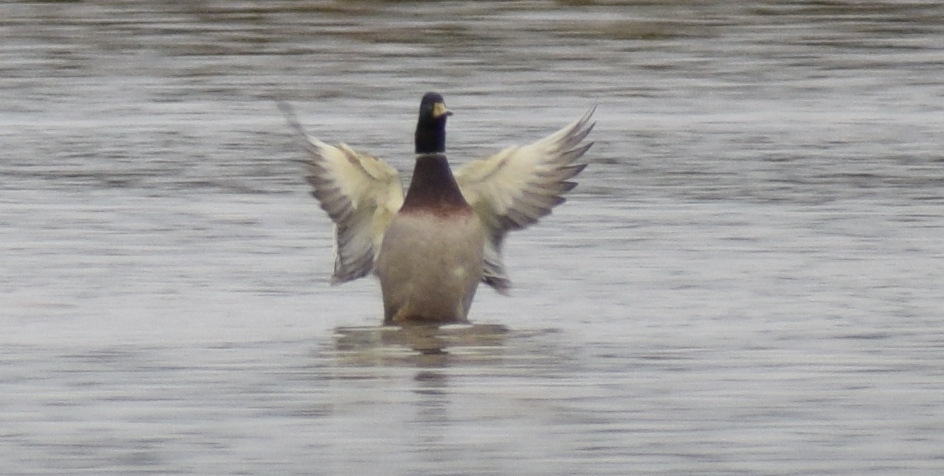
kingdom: Animalia
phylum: Chordata
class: Aves
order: Anseriformes
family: Anatidae
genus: Anas
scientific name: Anas platyrhynchos
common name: Mallard
